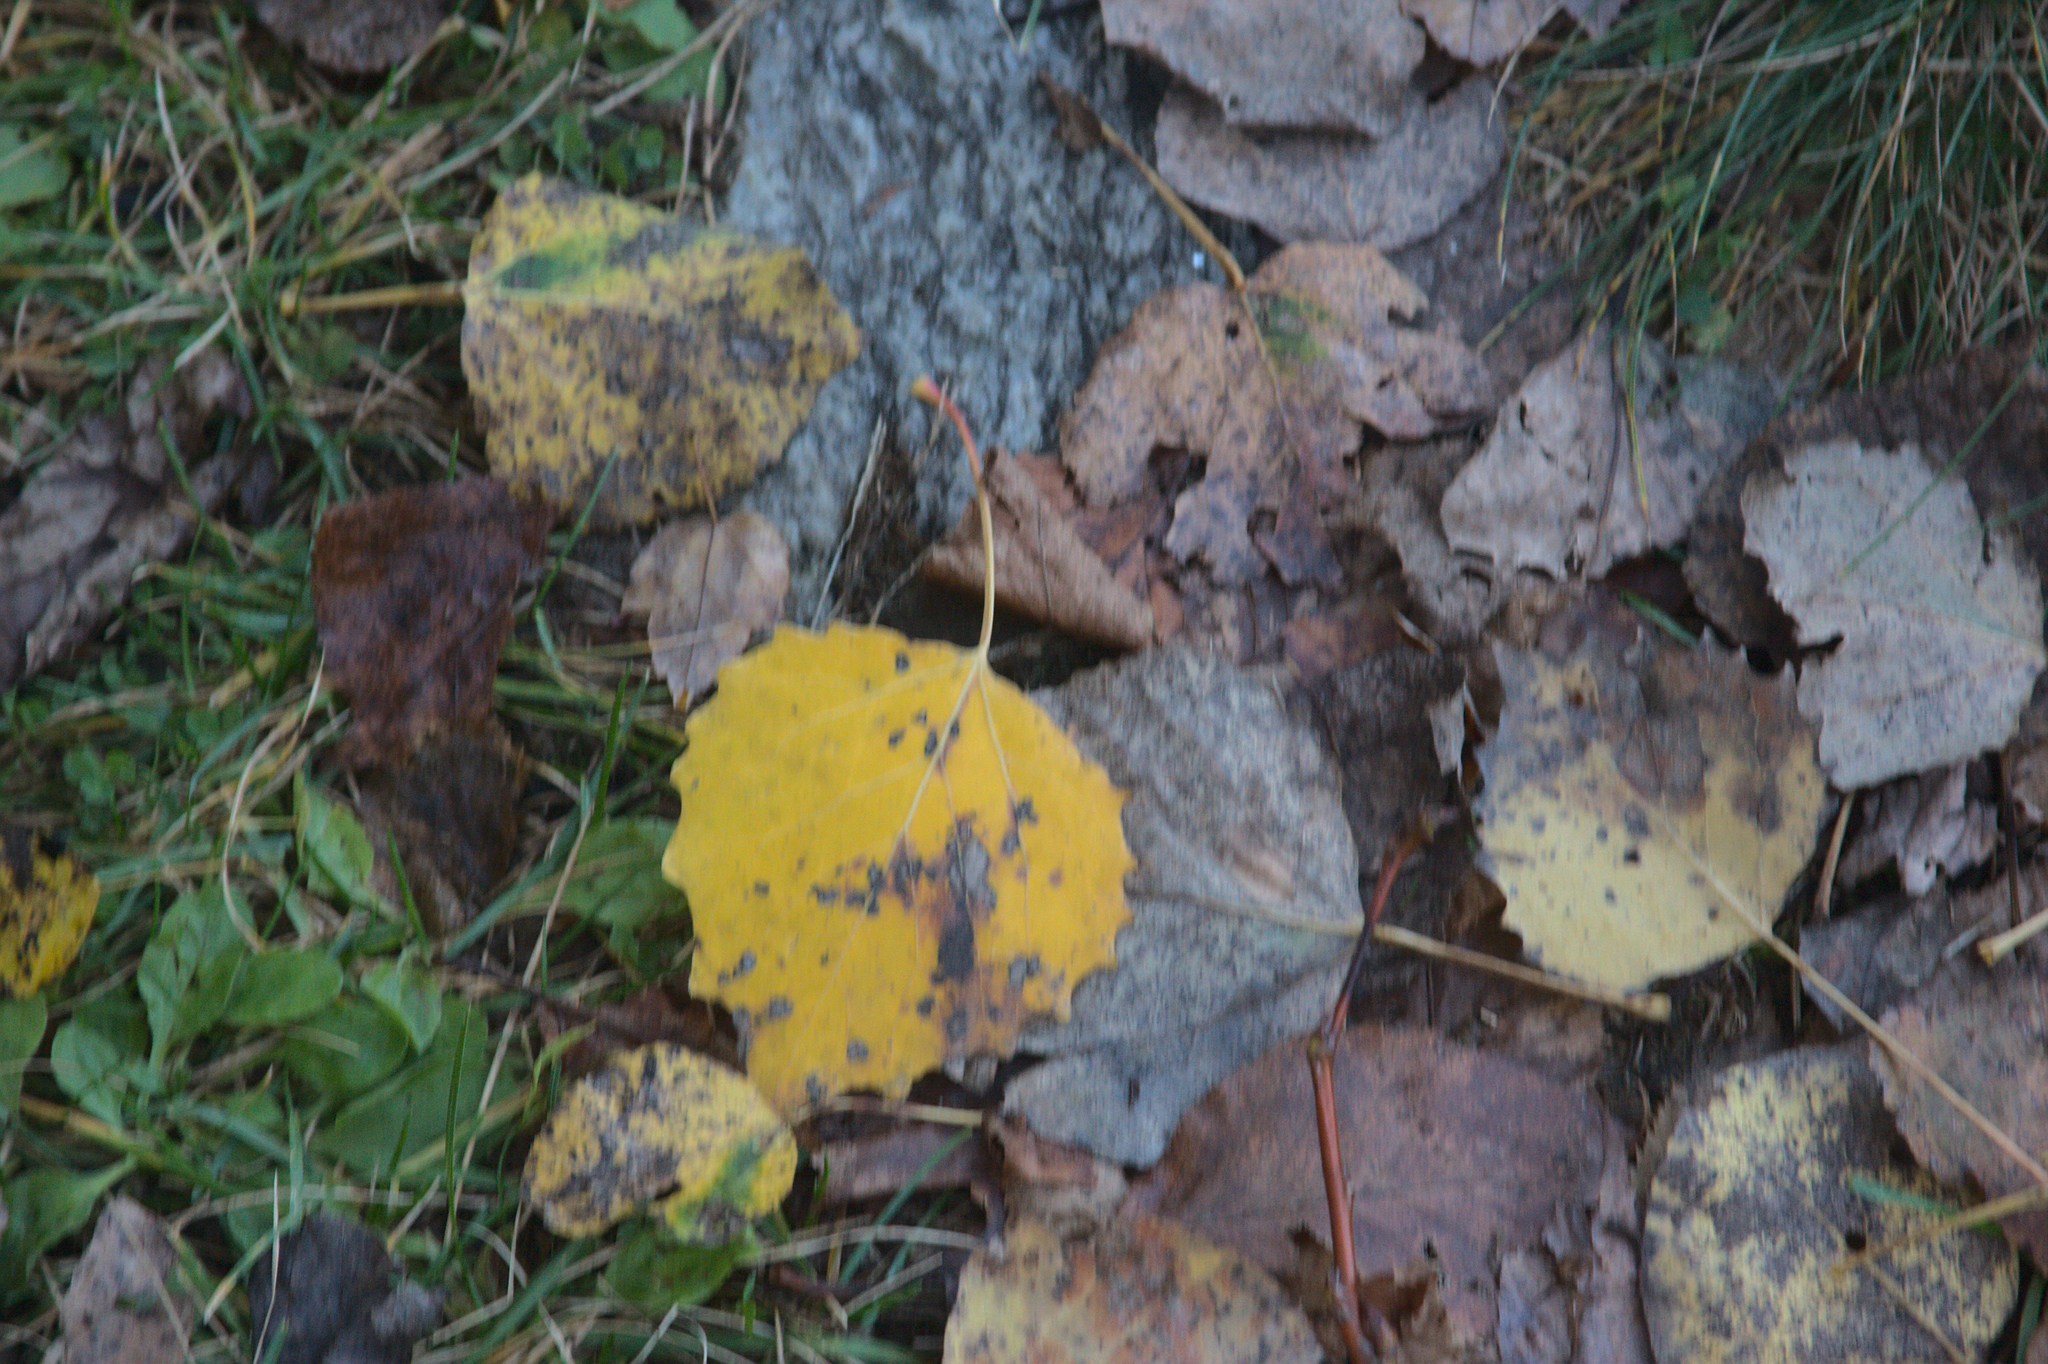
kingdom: Plantae
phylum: Tracheophyta
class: Magnoliopsida
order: Malpighiales
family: Salicaceae
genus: Populus
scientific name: Populus grandidentata
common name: Bigtooth aspen
